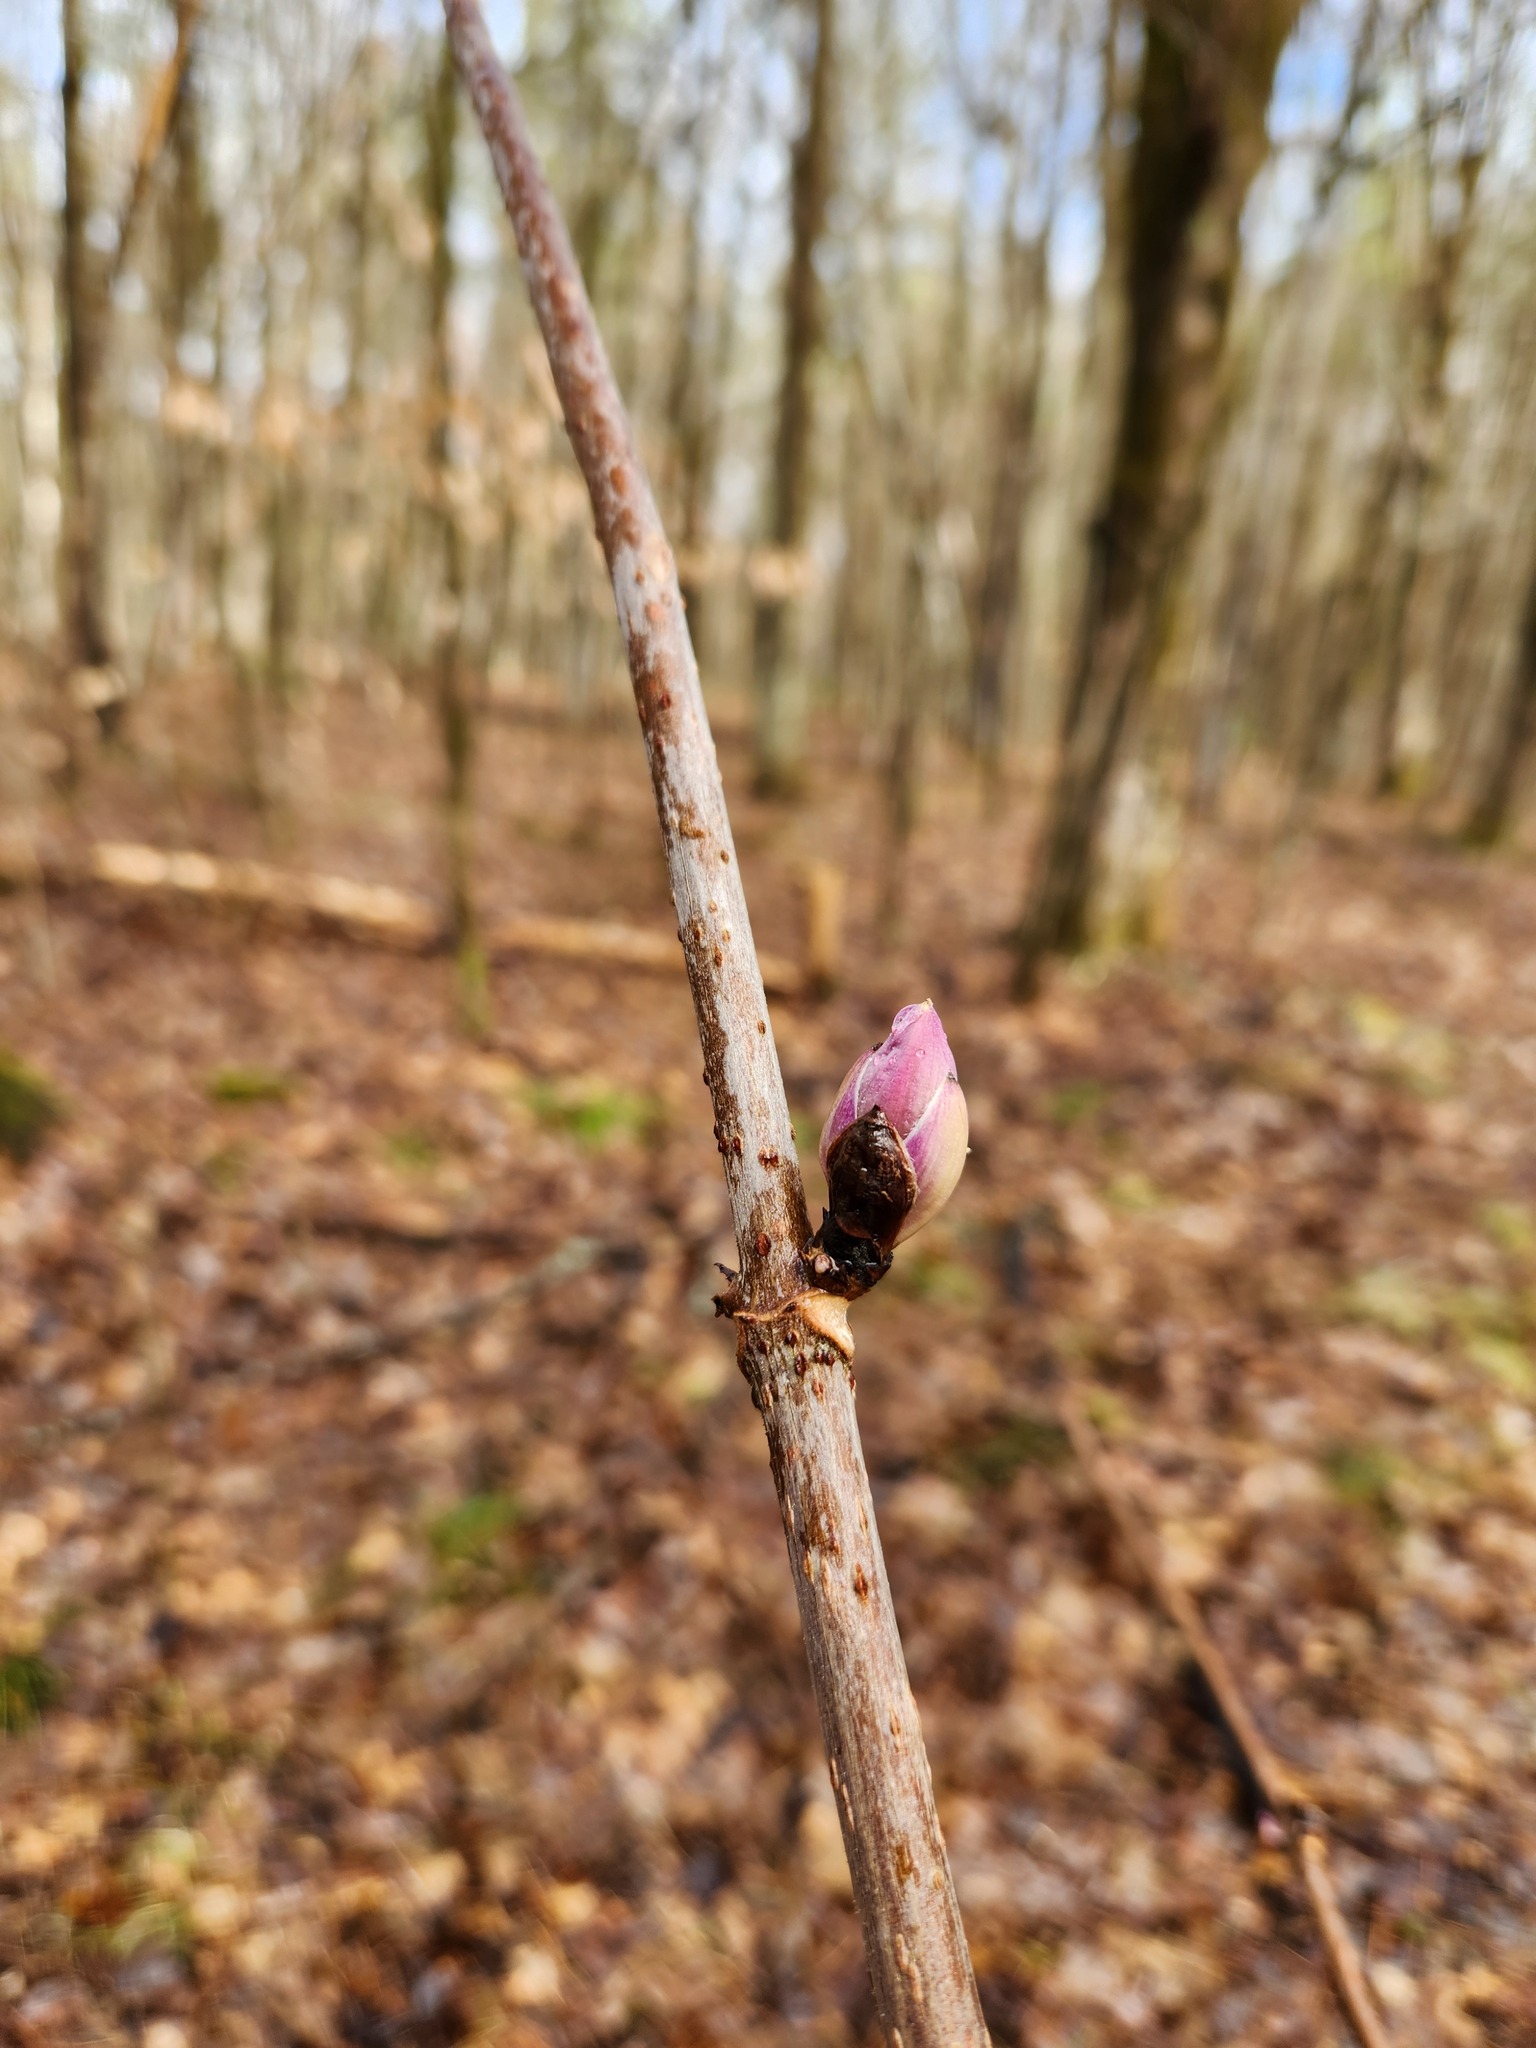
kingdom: Plantae
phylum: Tracheophyta
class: Magnoliopsida
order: Dipsacales
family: Viburnaceae
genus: Sambucus
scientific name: Sambucus racemosa
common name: Red-berried elder
